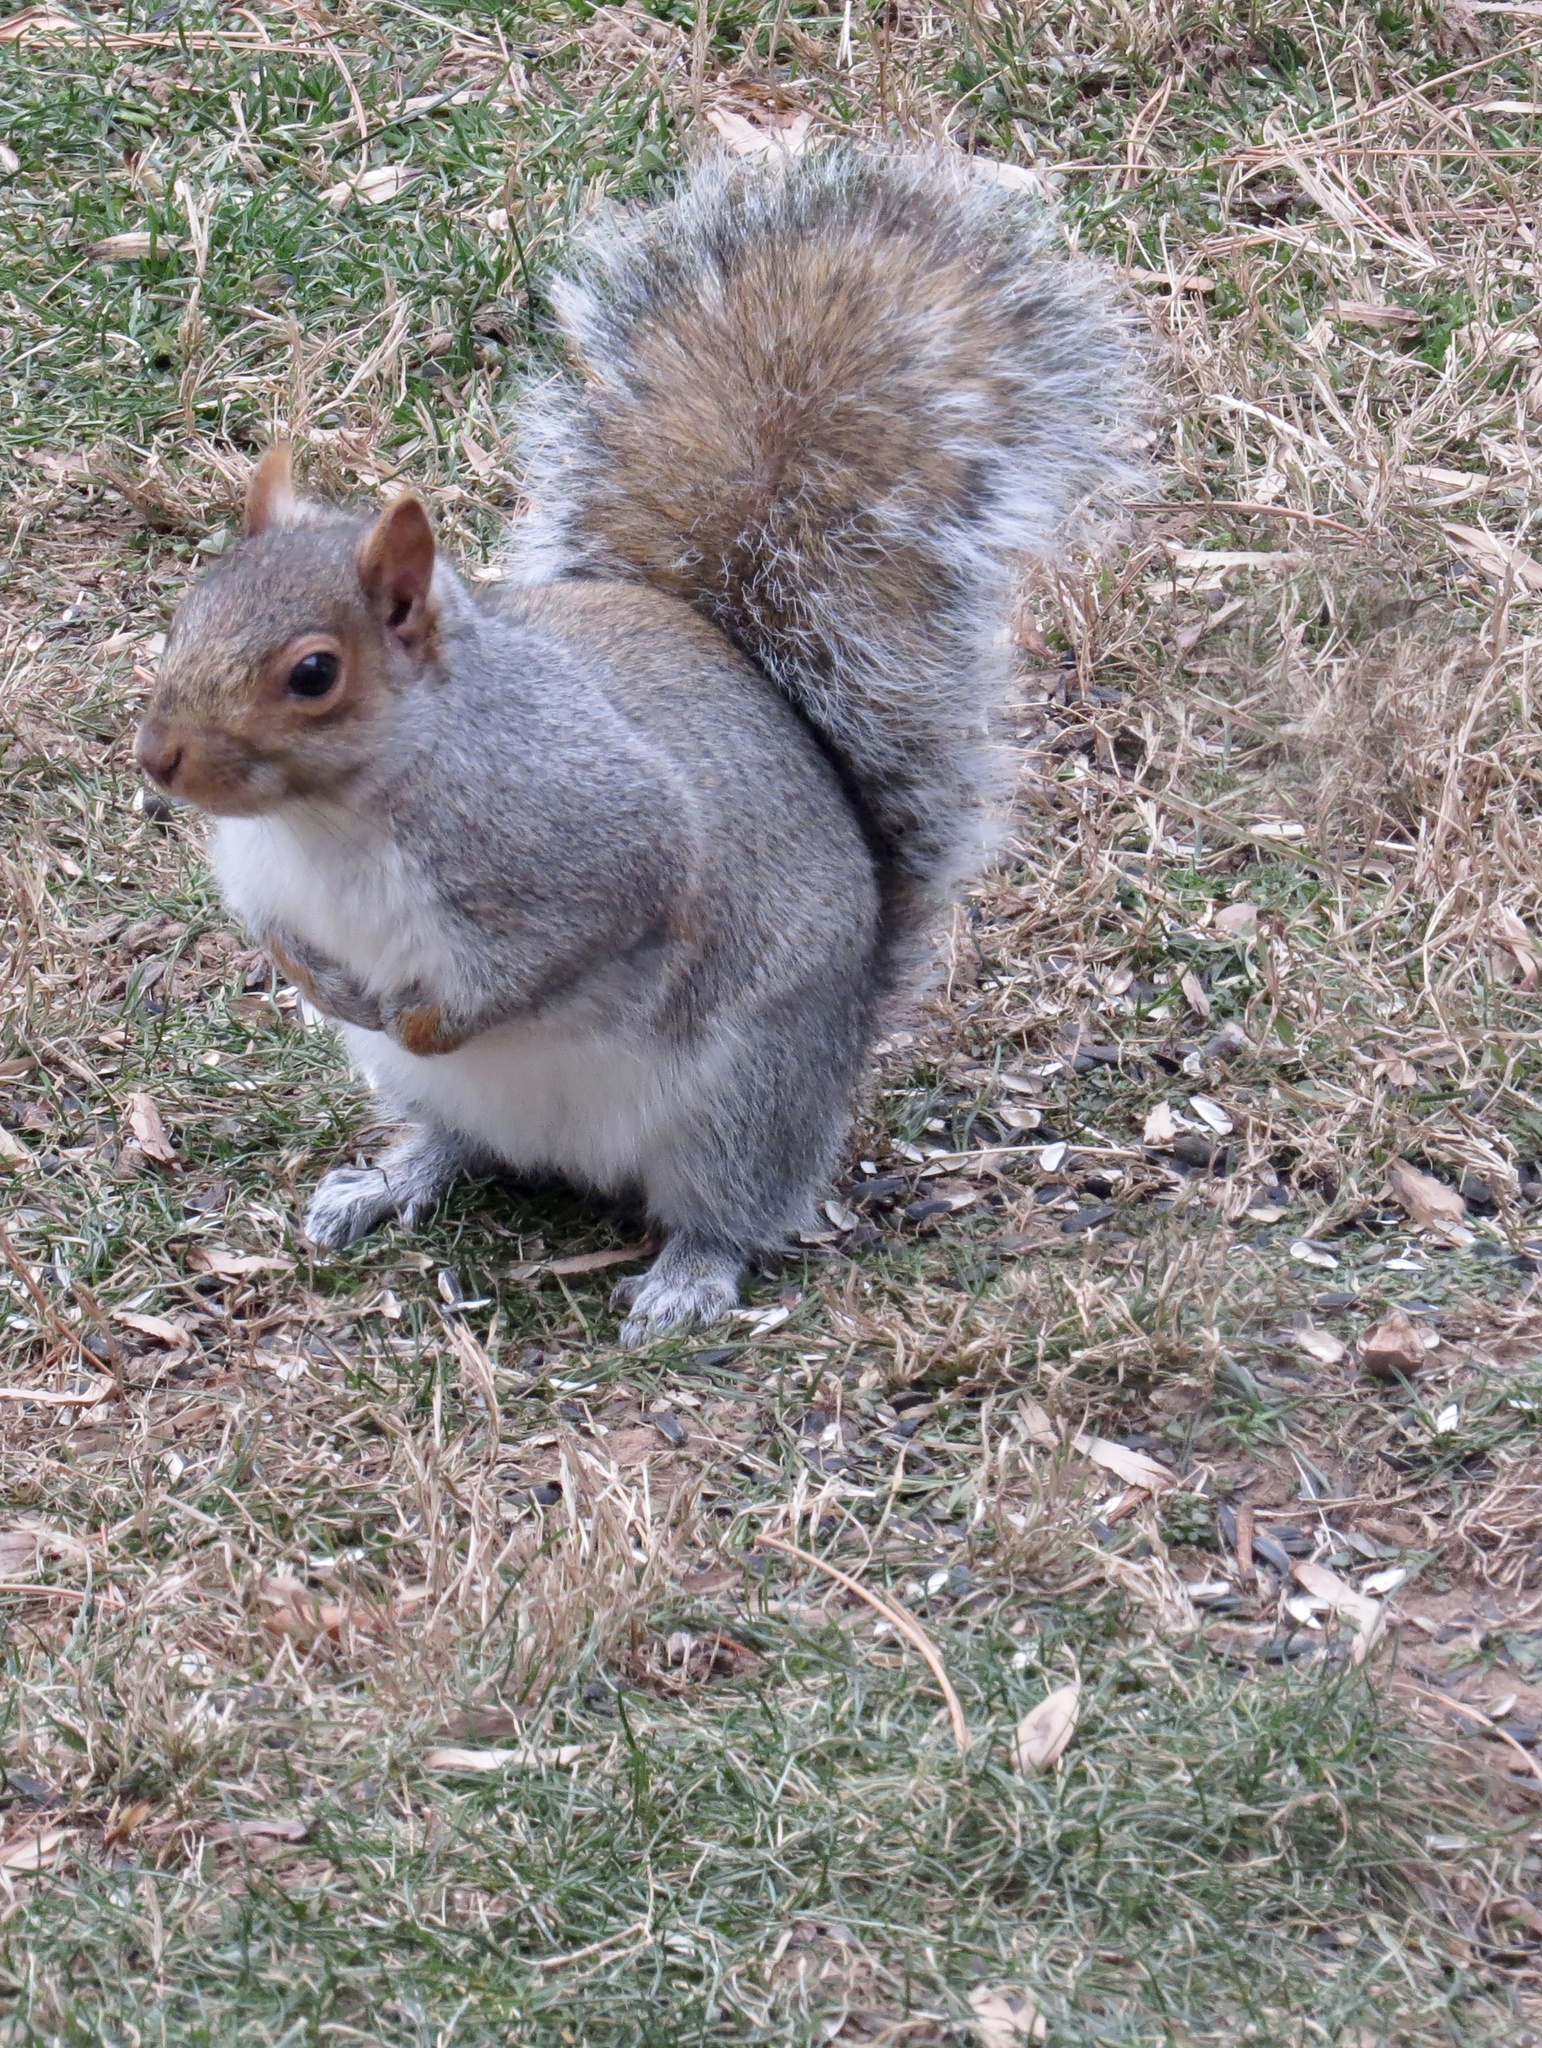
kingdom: Animalia
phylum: Chordata
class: Mammalia
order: Rodentia
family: Sciuridae
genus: Sciurus
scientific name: Sciurus carolinensis
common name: Eastern gray squirrel
